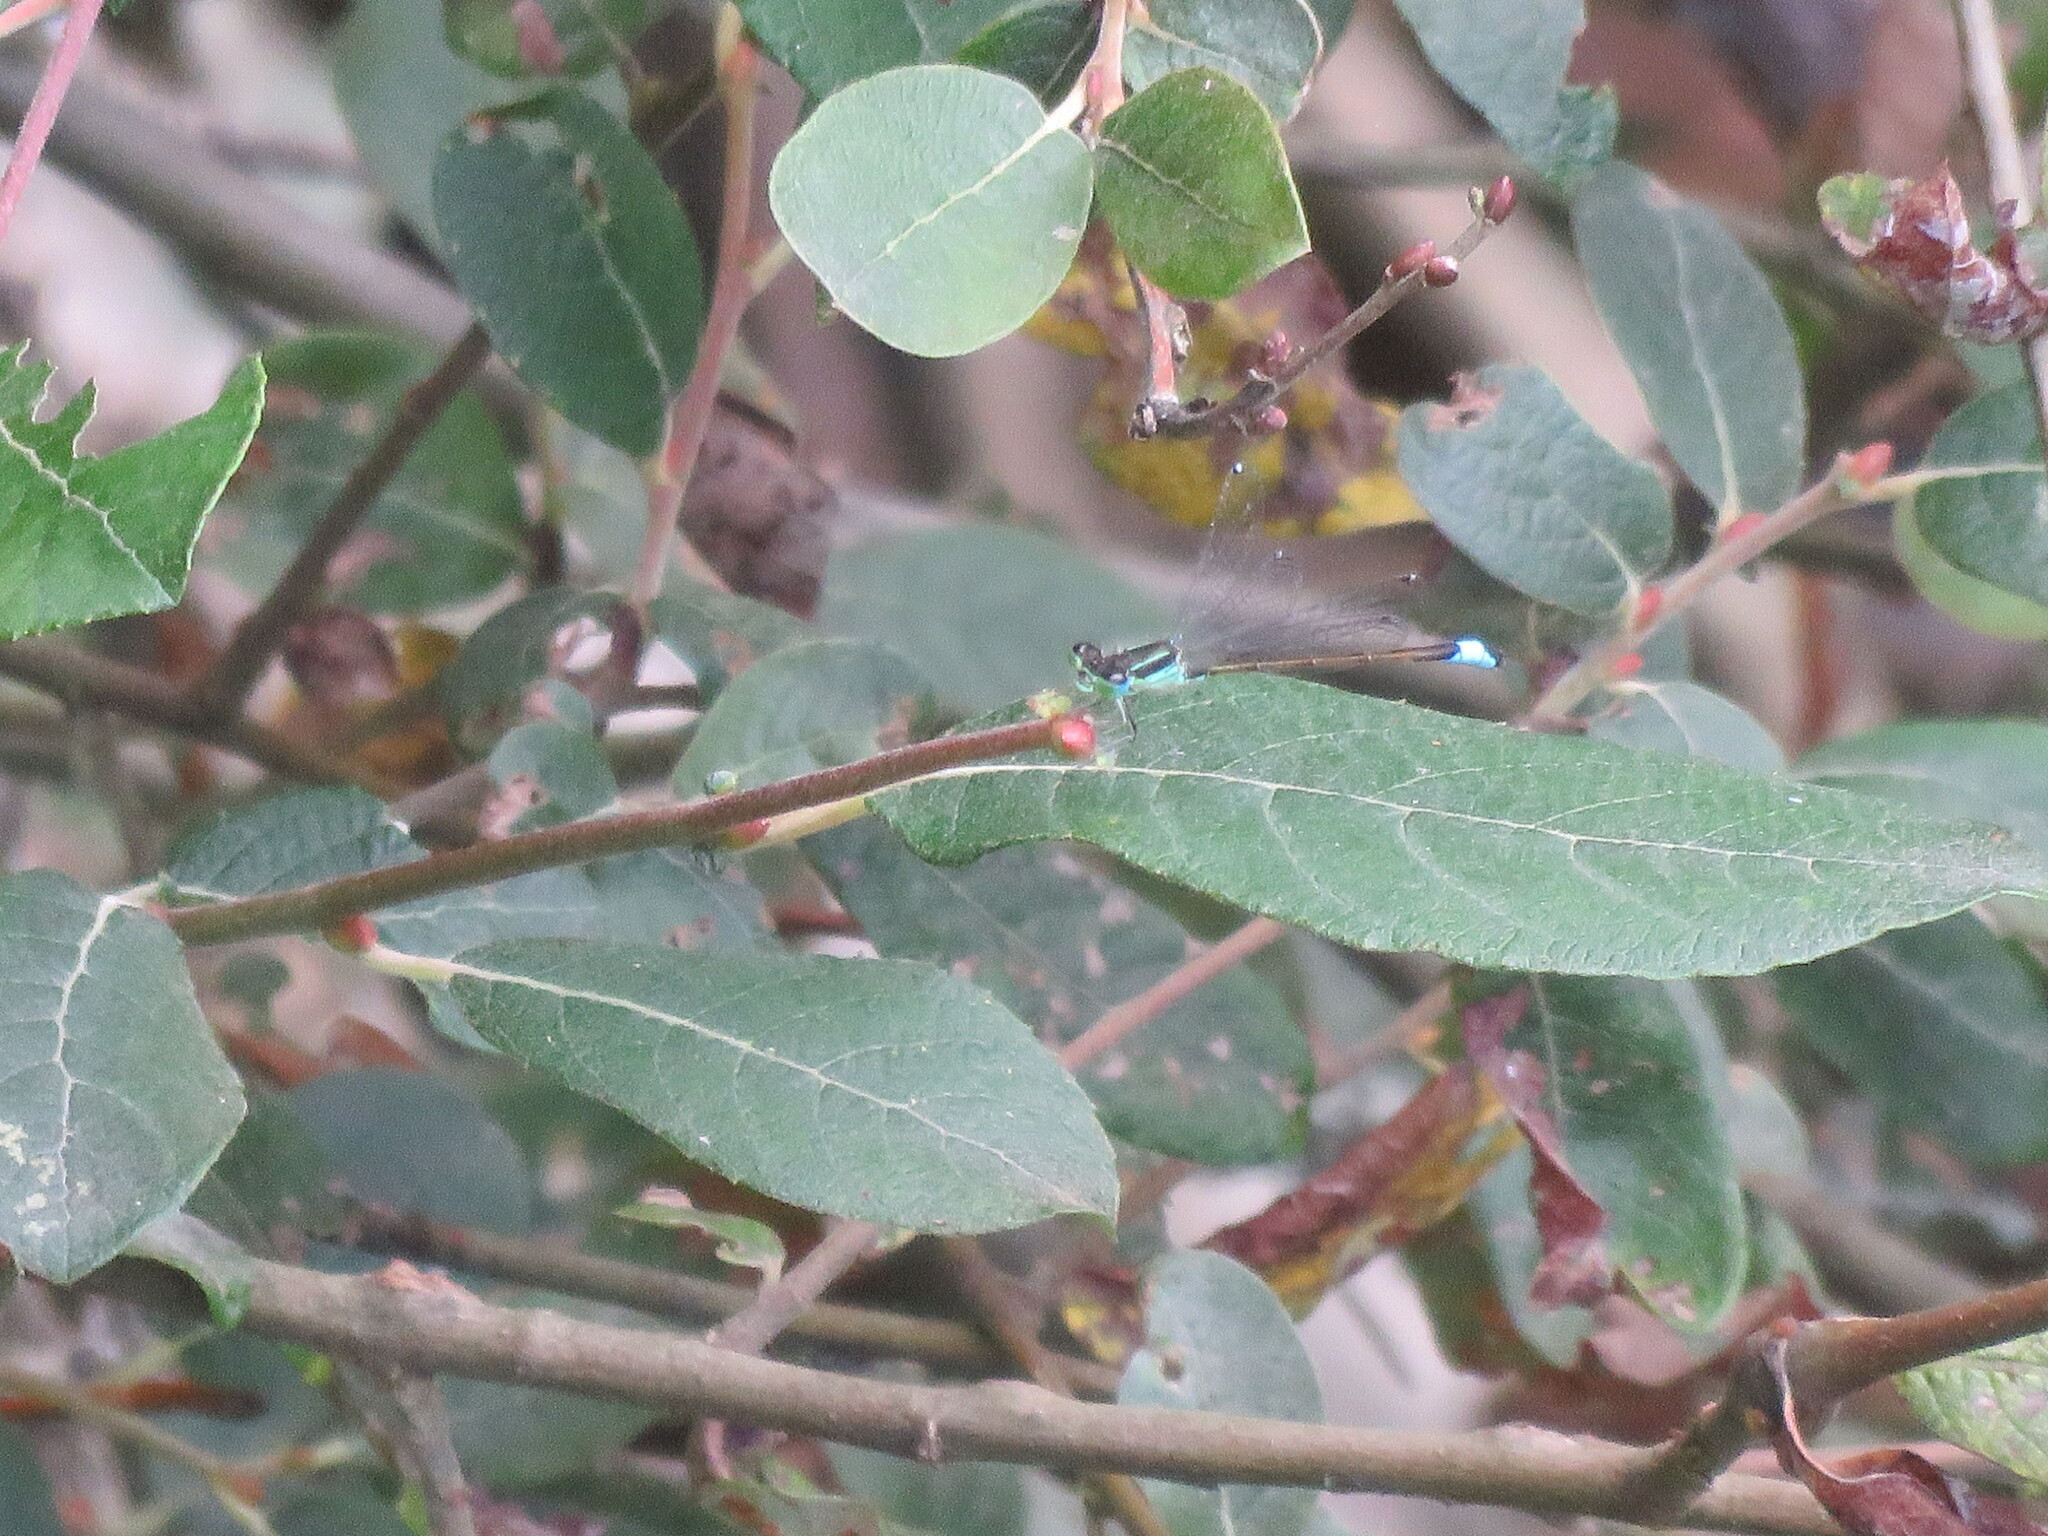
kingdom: Animalia
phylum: Arthropoda
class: Insecta
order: Odonata
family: Coenagrionidae
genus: Ischnura
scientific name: Ischnura graellsii
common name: Iberian bluetail
